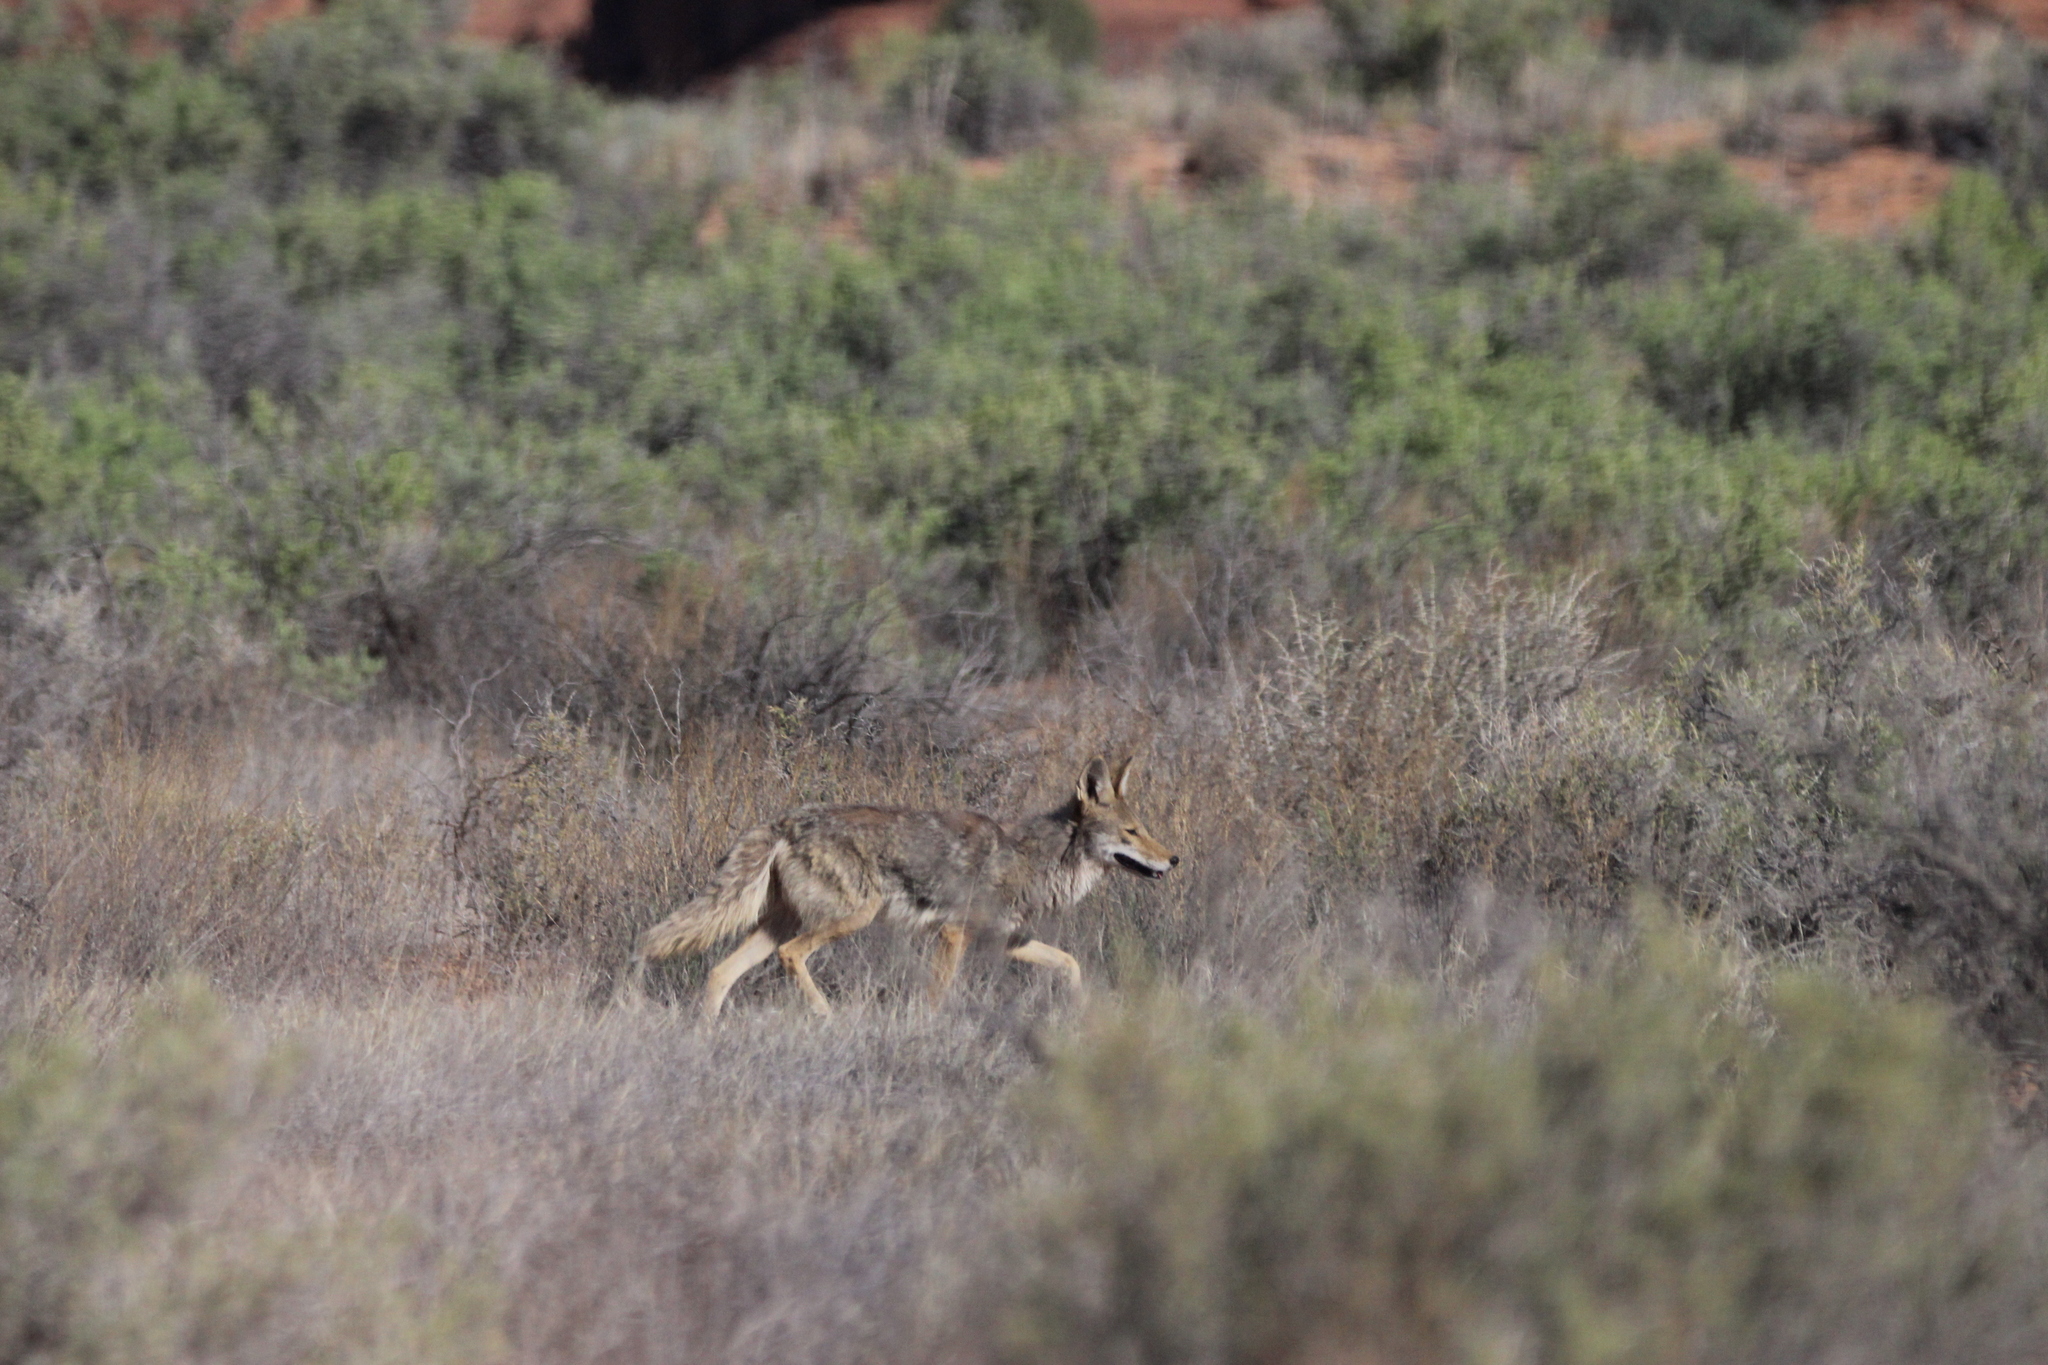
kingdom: Animalia
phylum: Chordata
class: Mammalia
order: Carnivora
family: Canidae
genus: Canis
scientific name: Canis latrans
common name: Coyote
